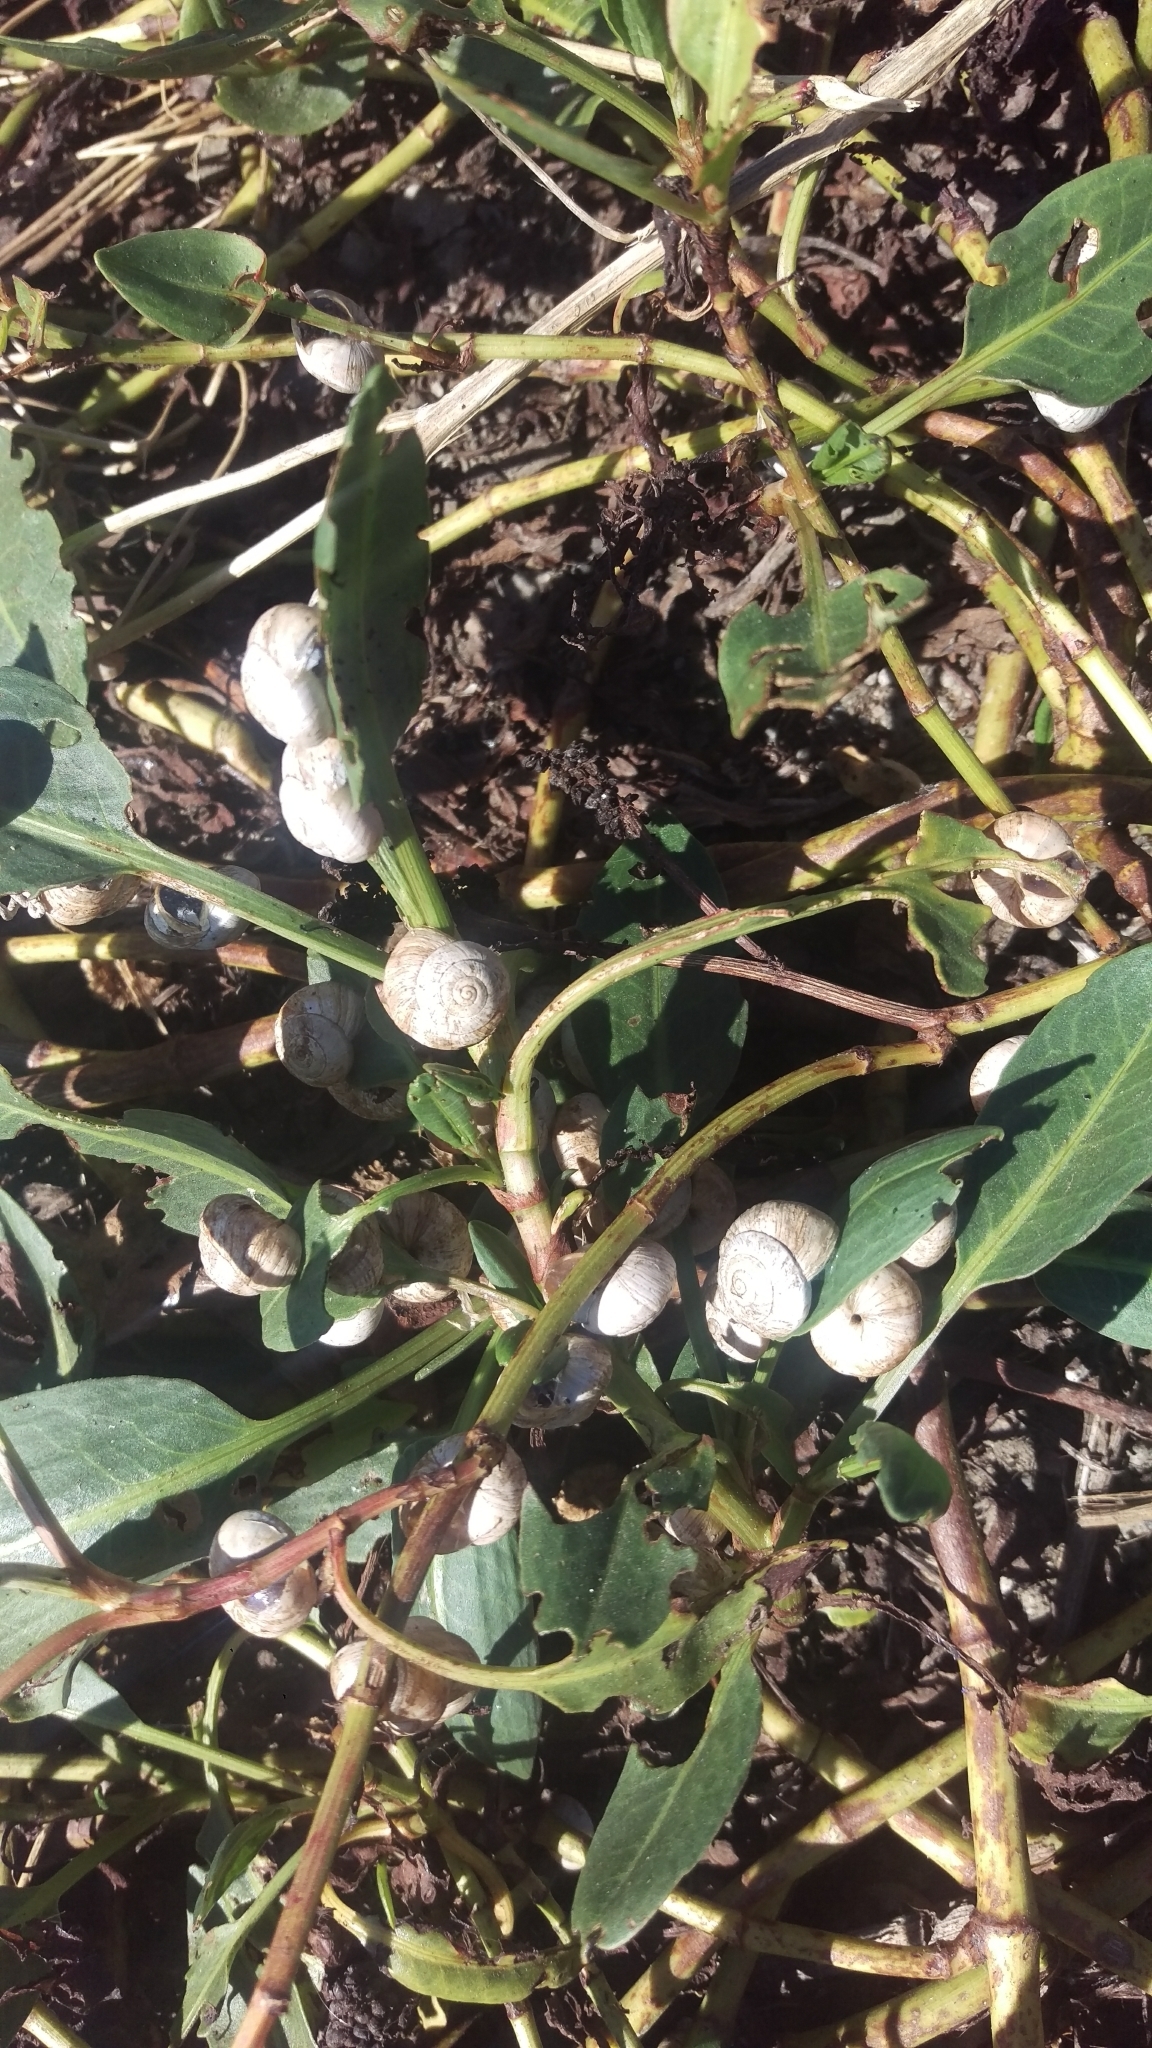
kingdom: Animalia
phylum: Mollusca
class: Gastropoda
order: Stylommatophora
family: Helicidae
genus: Theba
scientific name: Theba pisana
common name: White snail
